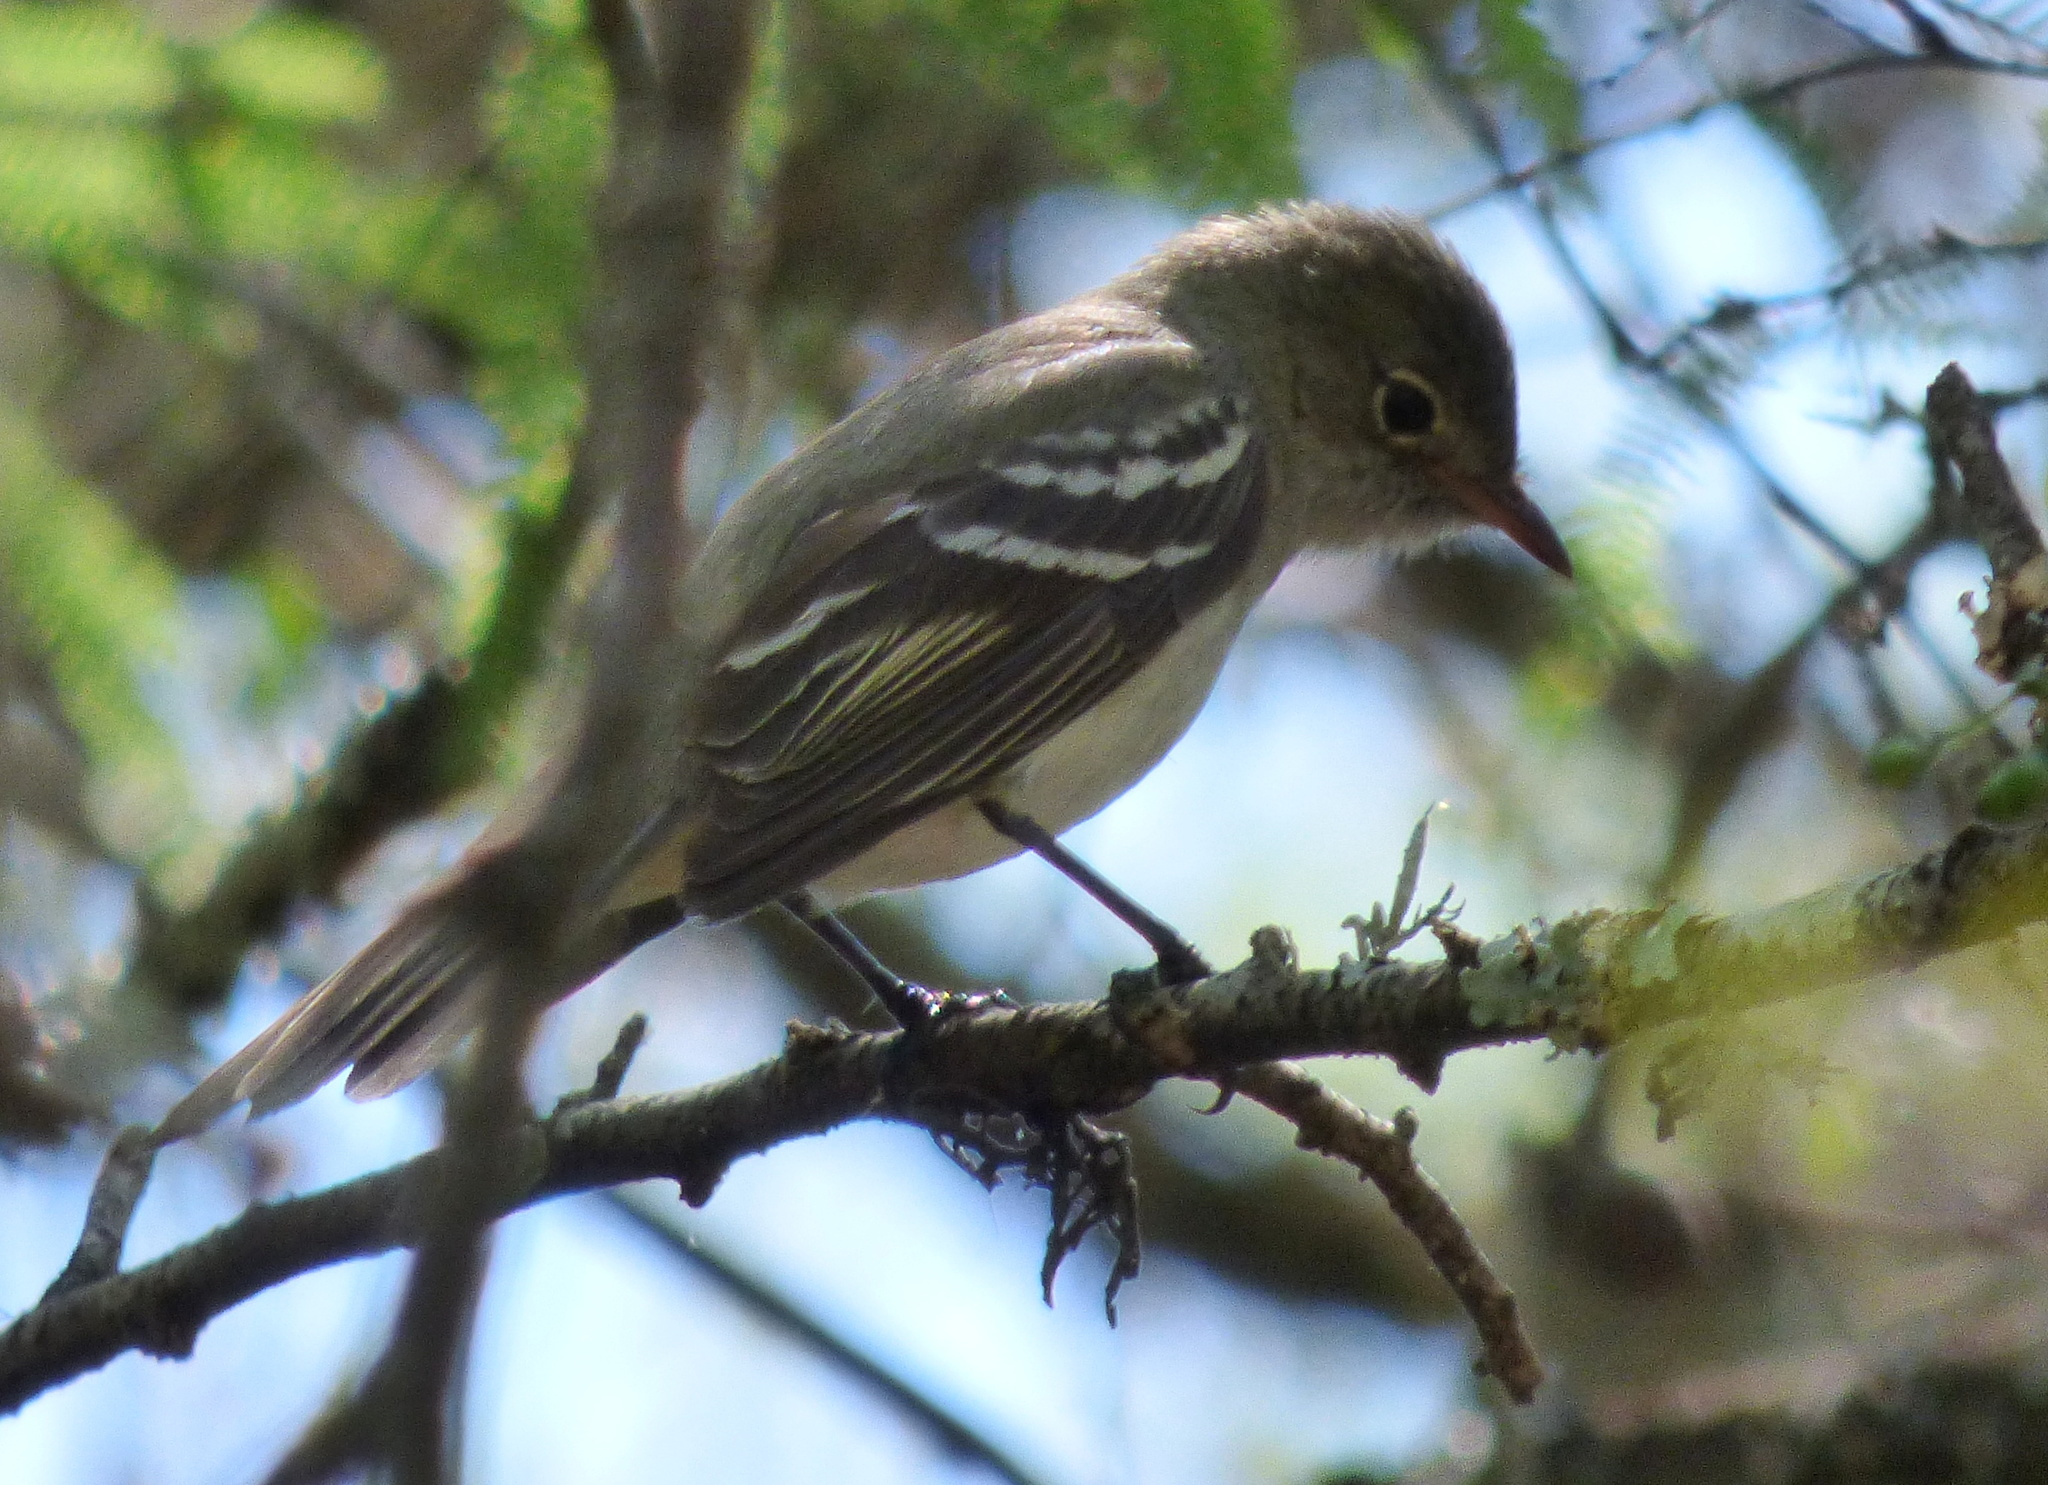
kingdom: Animalia
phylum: Chordata
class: Aves
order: Passeriformes
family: Tyrannidae
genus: Elaenia
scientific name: Elaenia spectabilis
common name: Large elaenia
